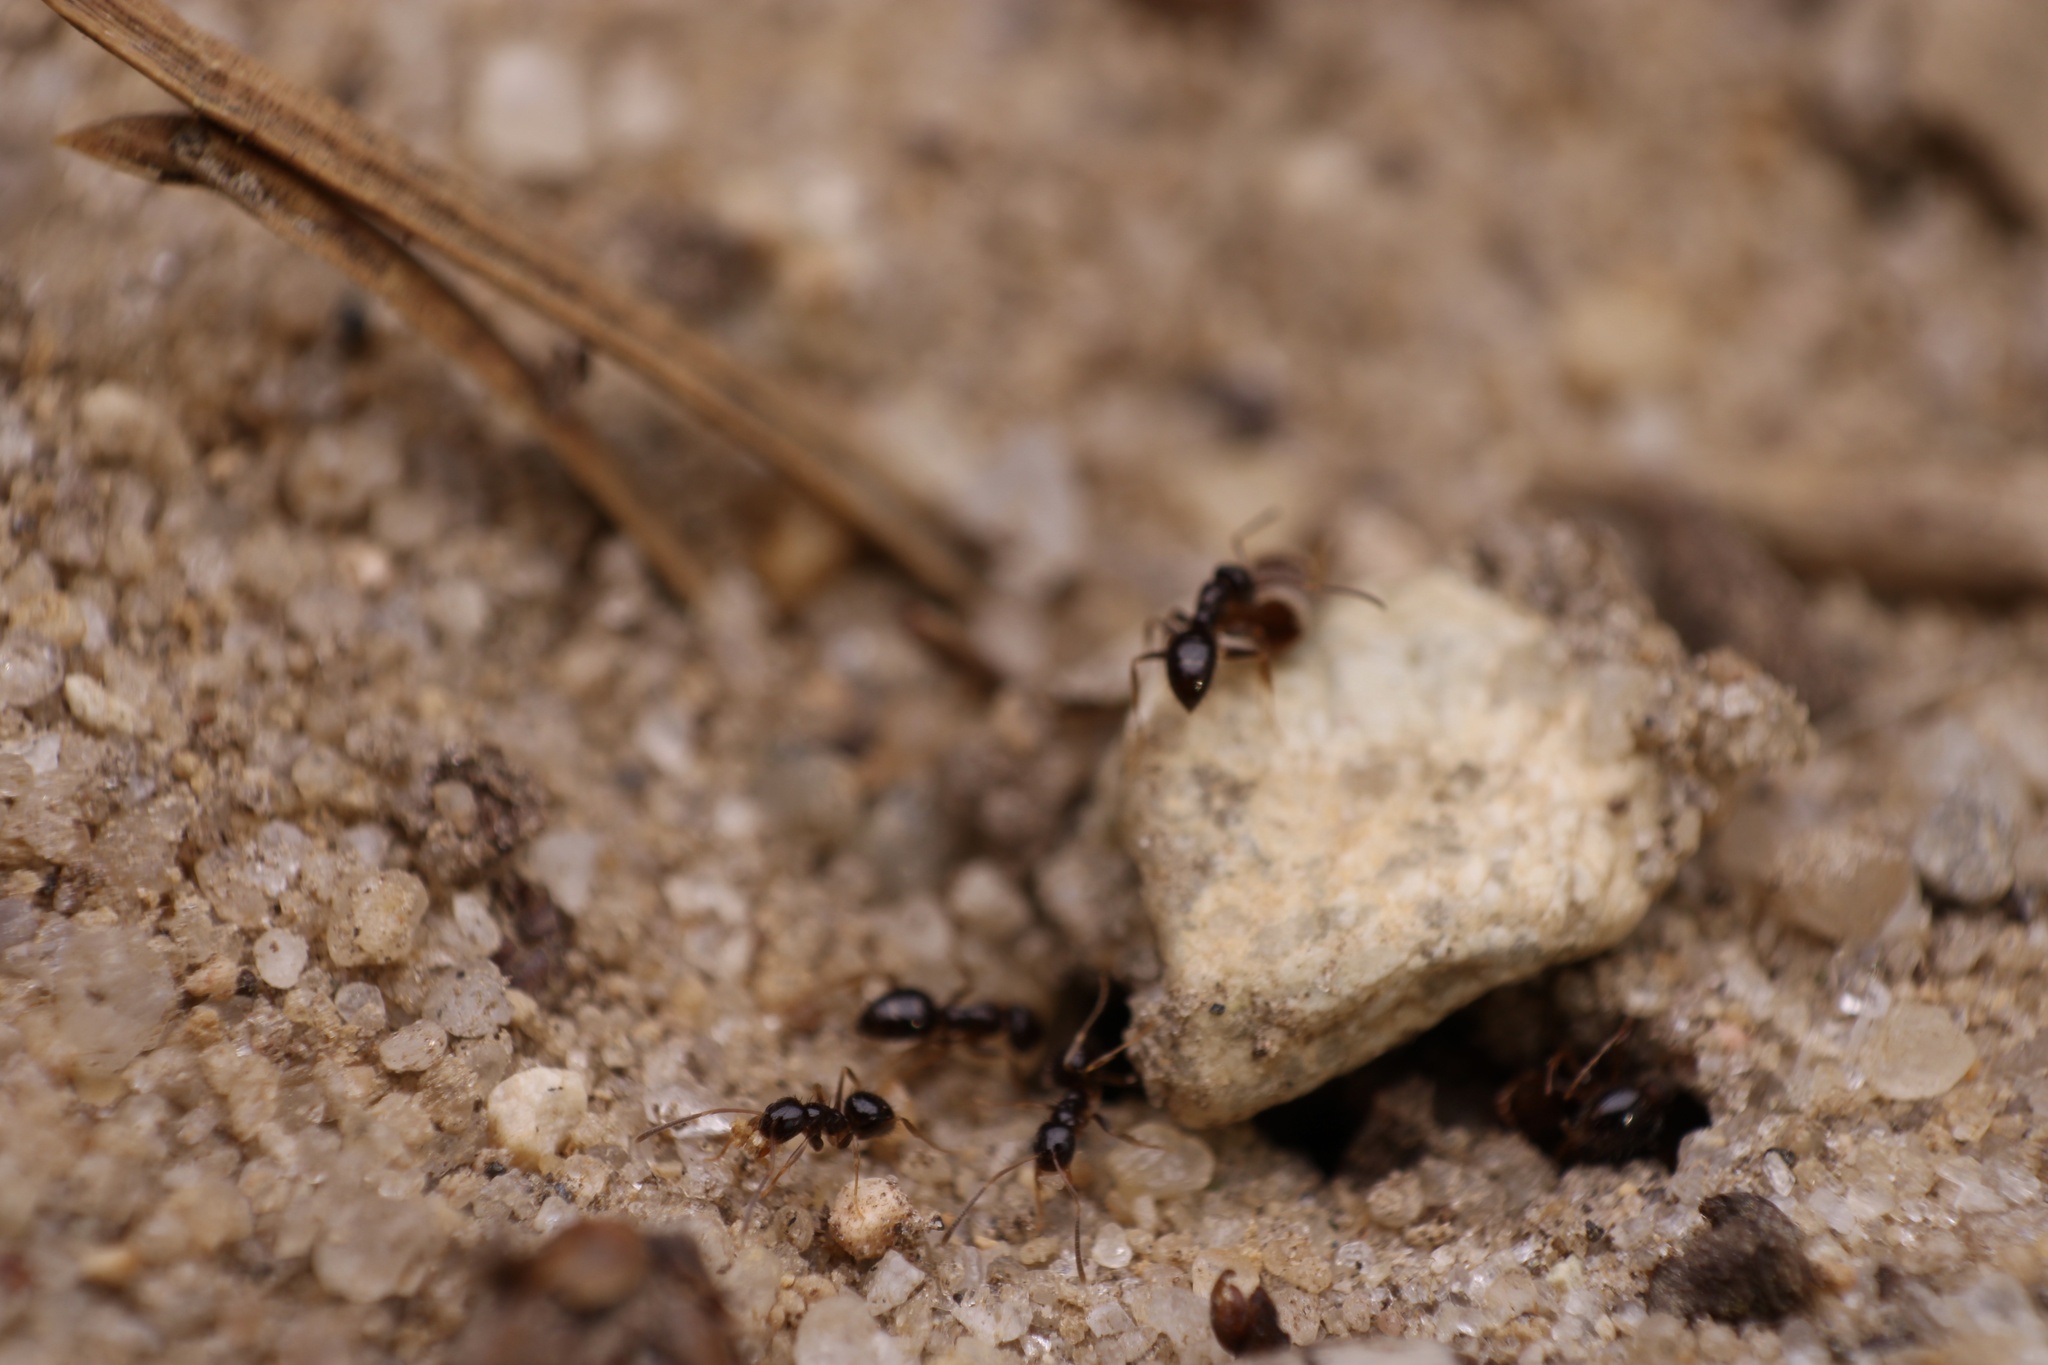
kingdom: Animalia
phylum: Arthropoda
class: Insecta
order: Hymenoptera
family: Formicidae
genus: Nylanderia
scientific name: Nylanderia parvula
